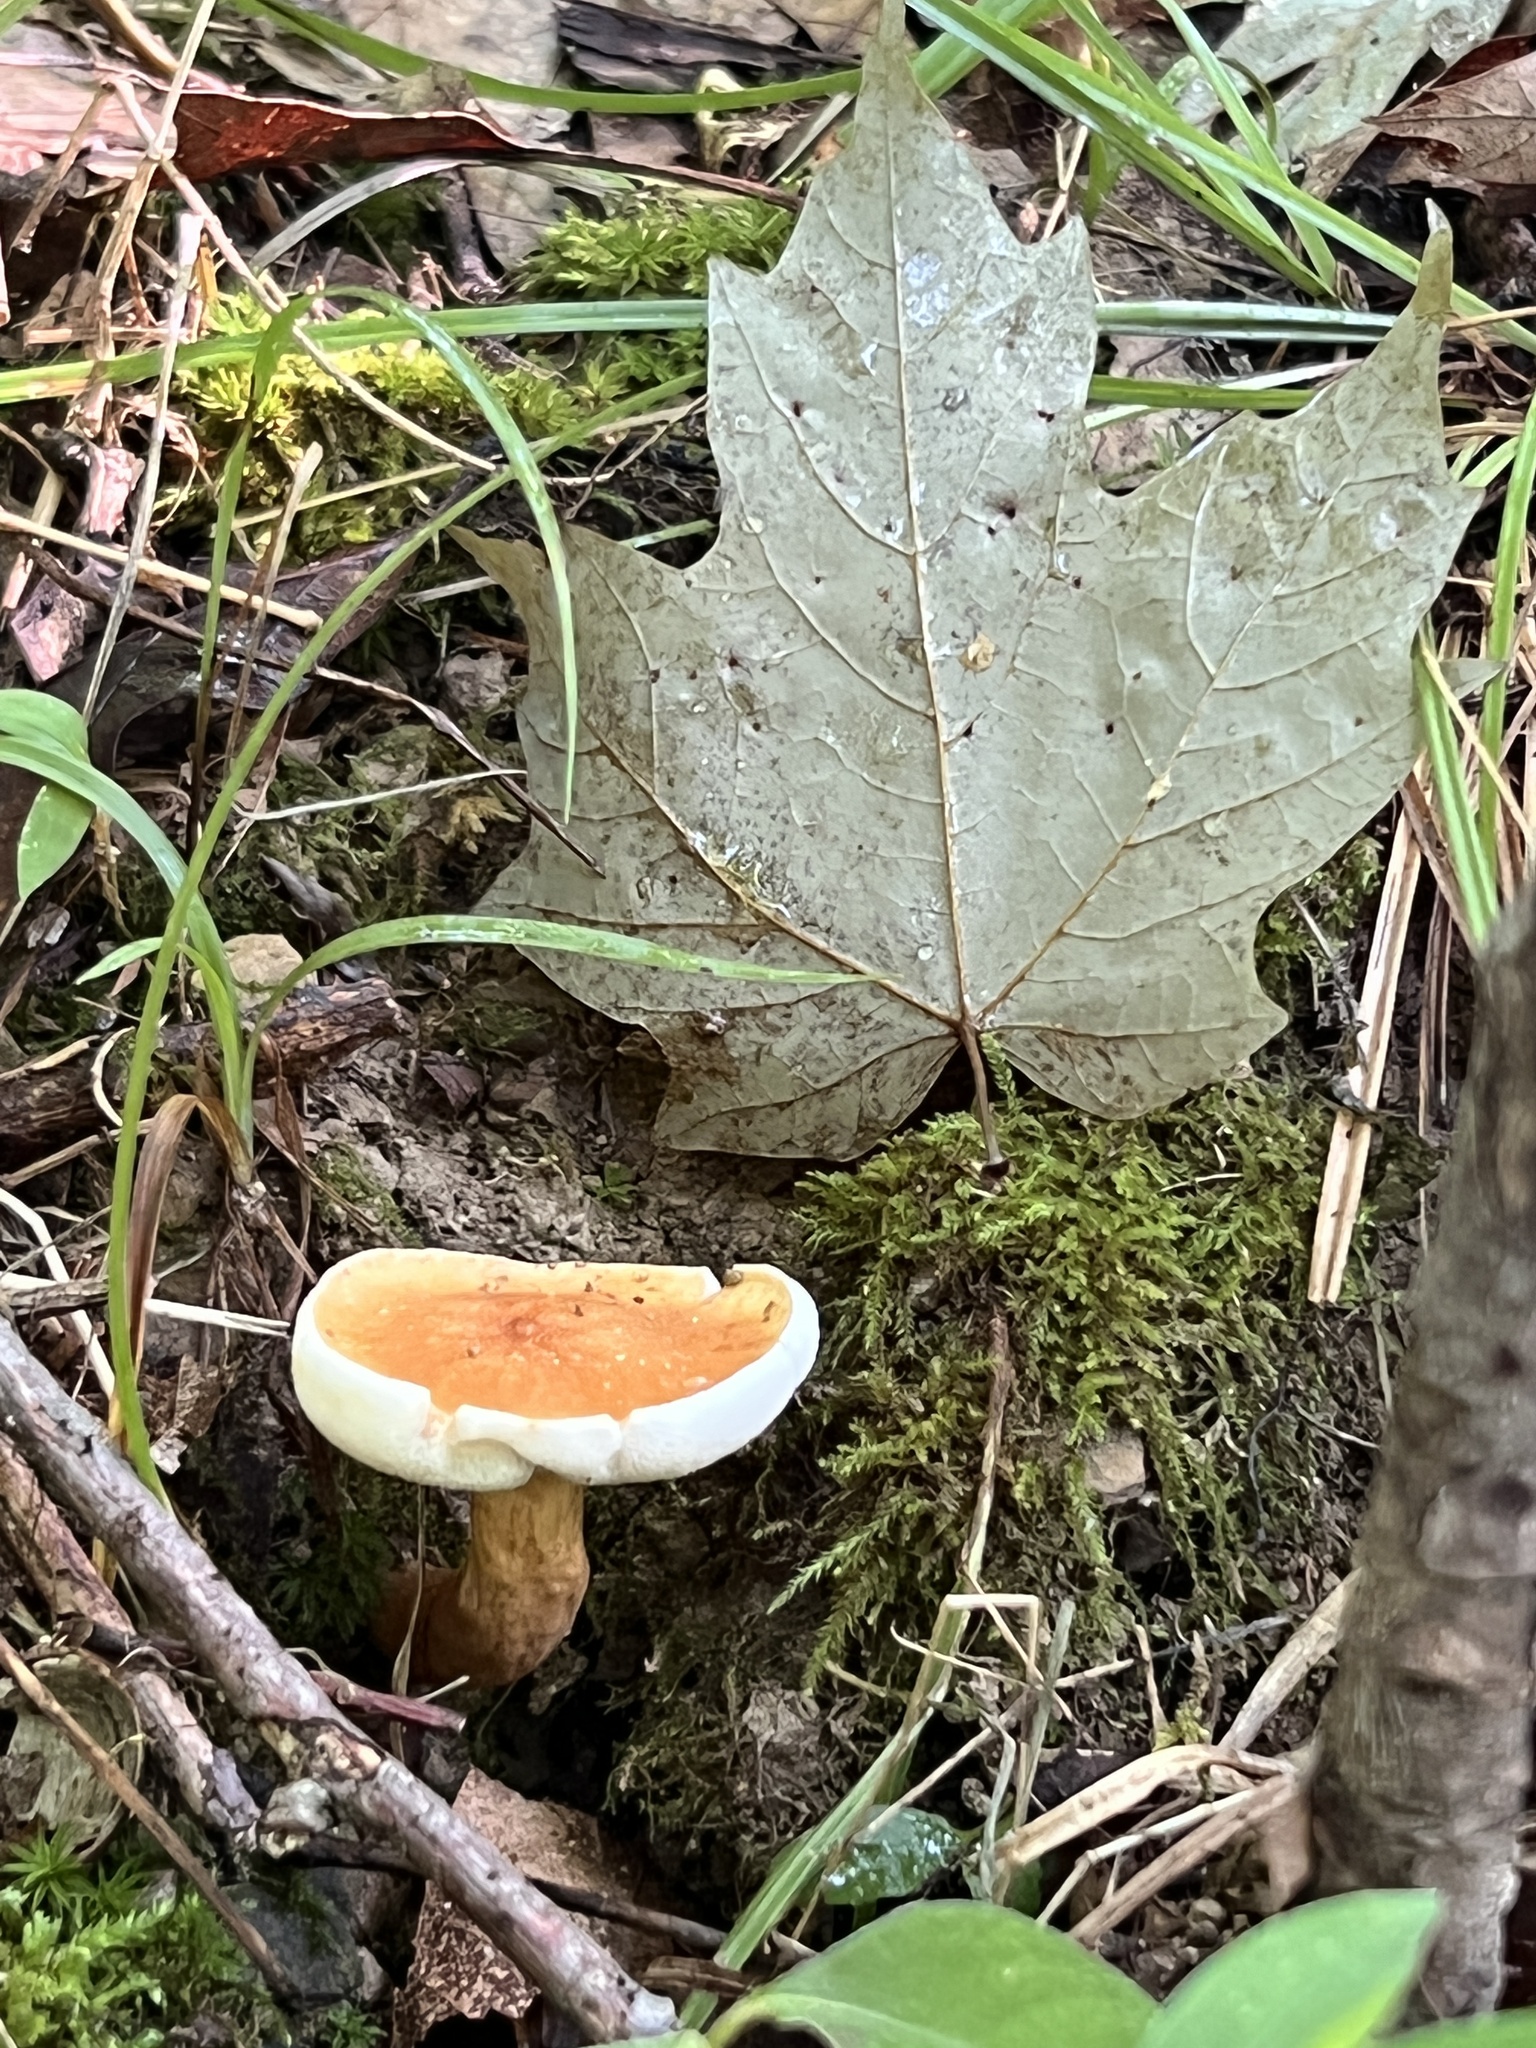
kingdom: Fungi
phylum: Basidiomycota
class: Agaricomycetes
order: Boletales
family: Gyroporaceae
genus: Gyroporus
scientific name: Gyroporus castaneus
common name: Chestnut bolete
